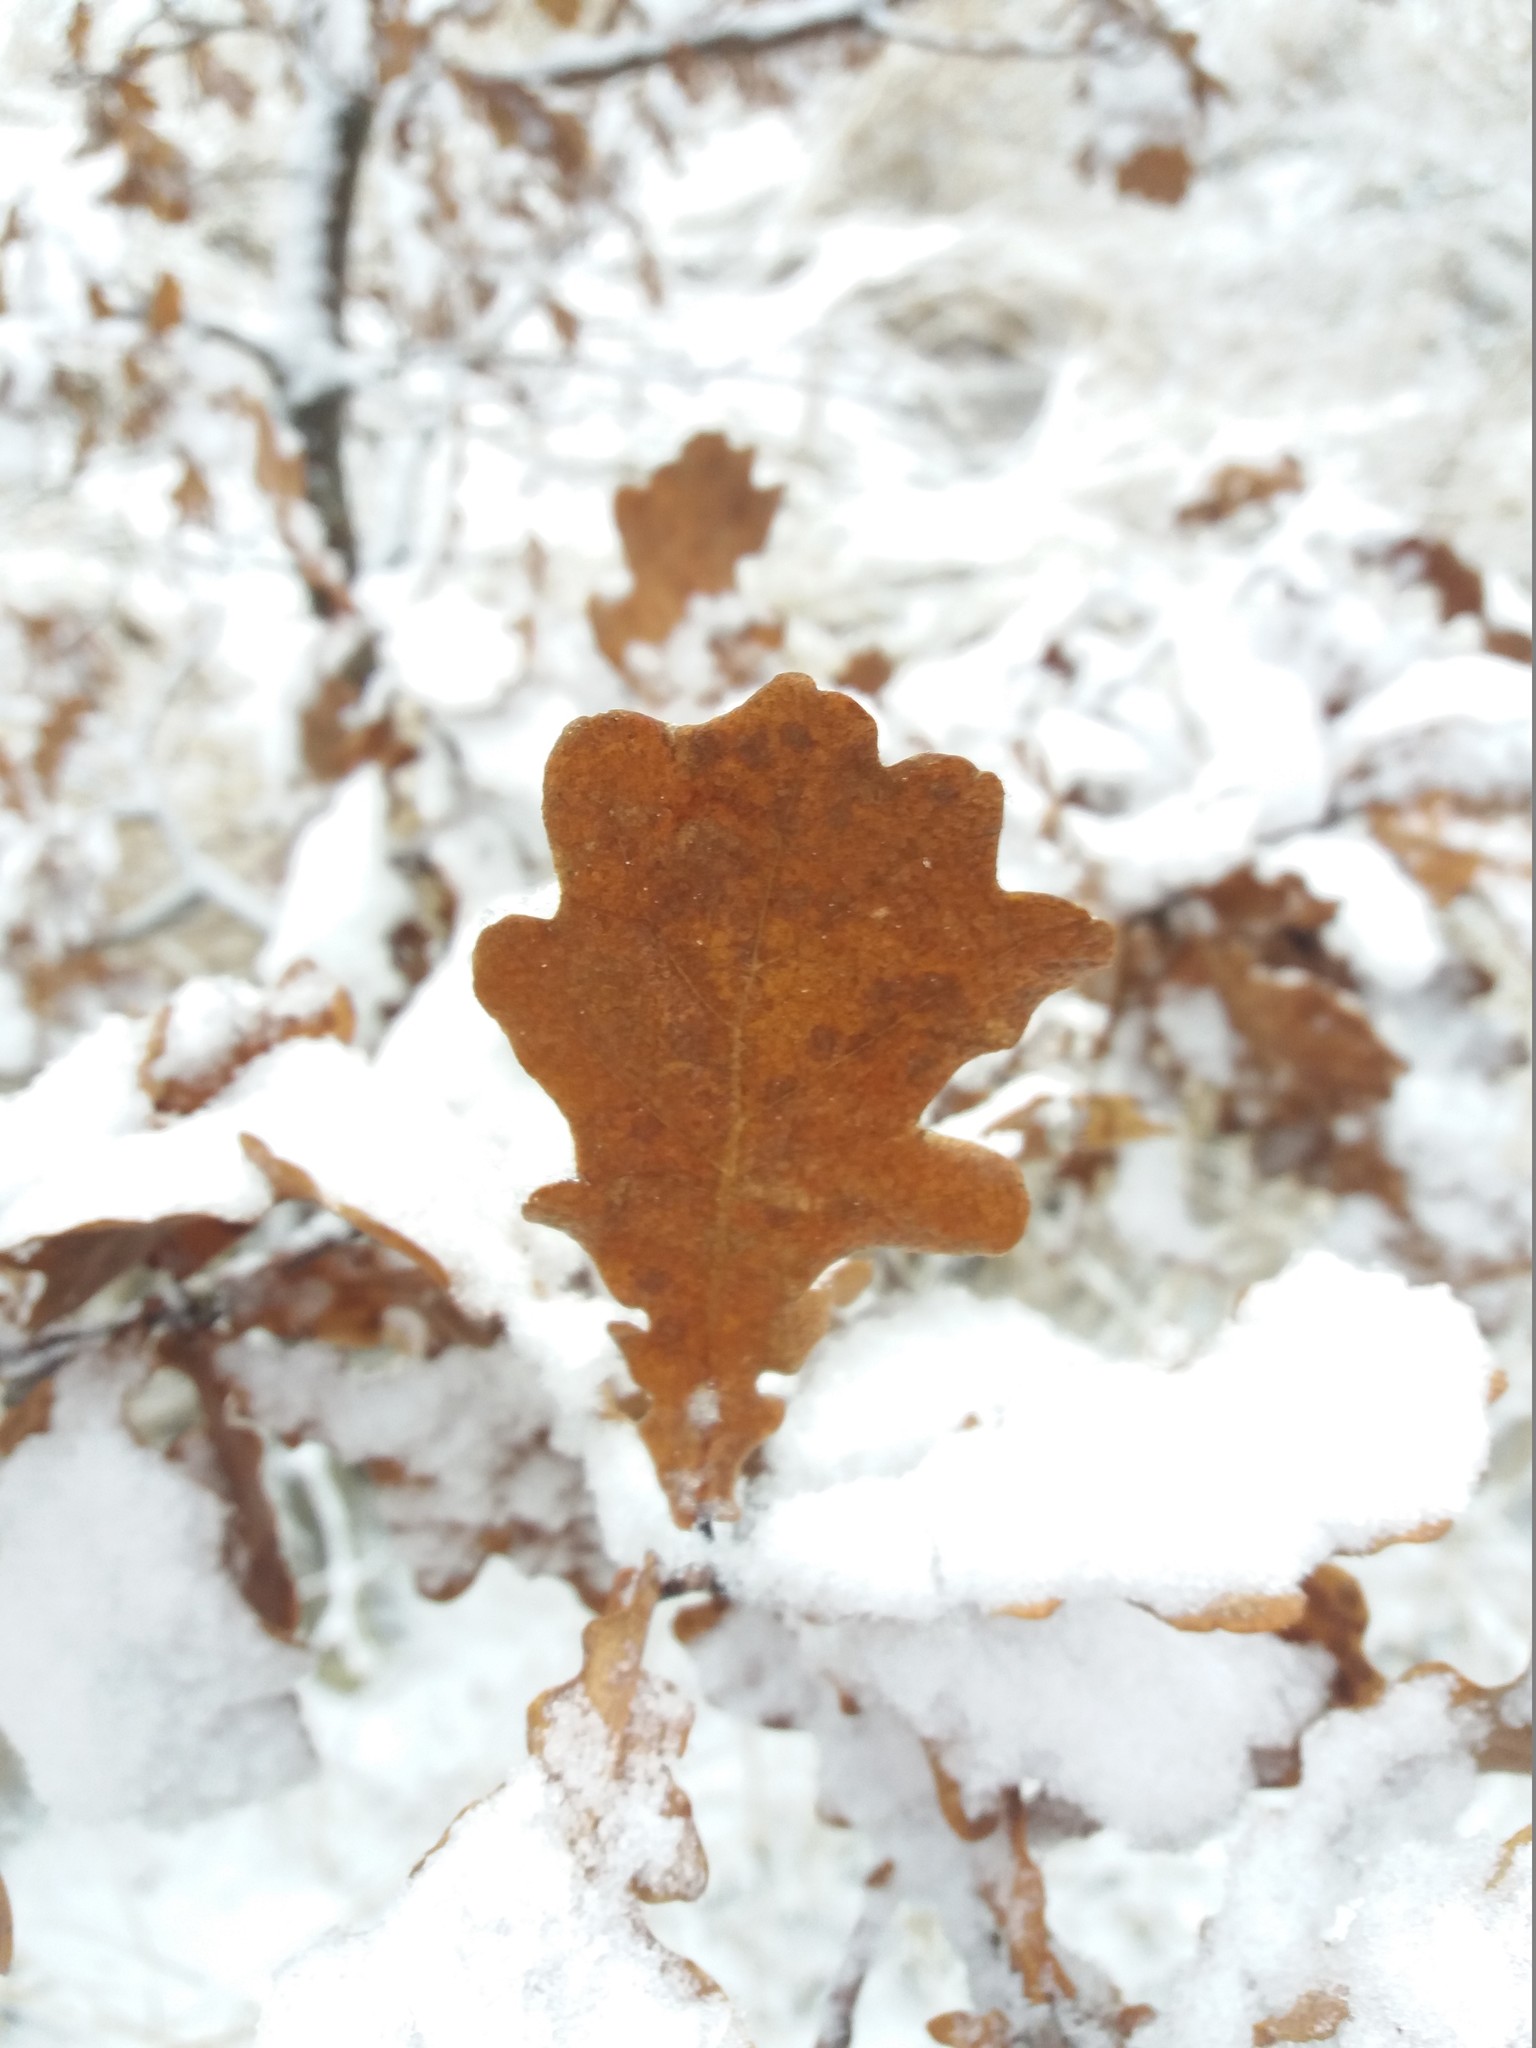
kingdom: Plantae
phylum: Tracheophyta
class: Magnoliopsida
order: Fagales
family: Fagaceae
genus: Quercus
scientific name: Quercus robur
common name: Pedunculate oak
